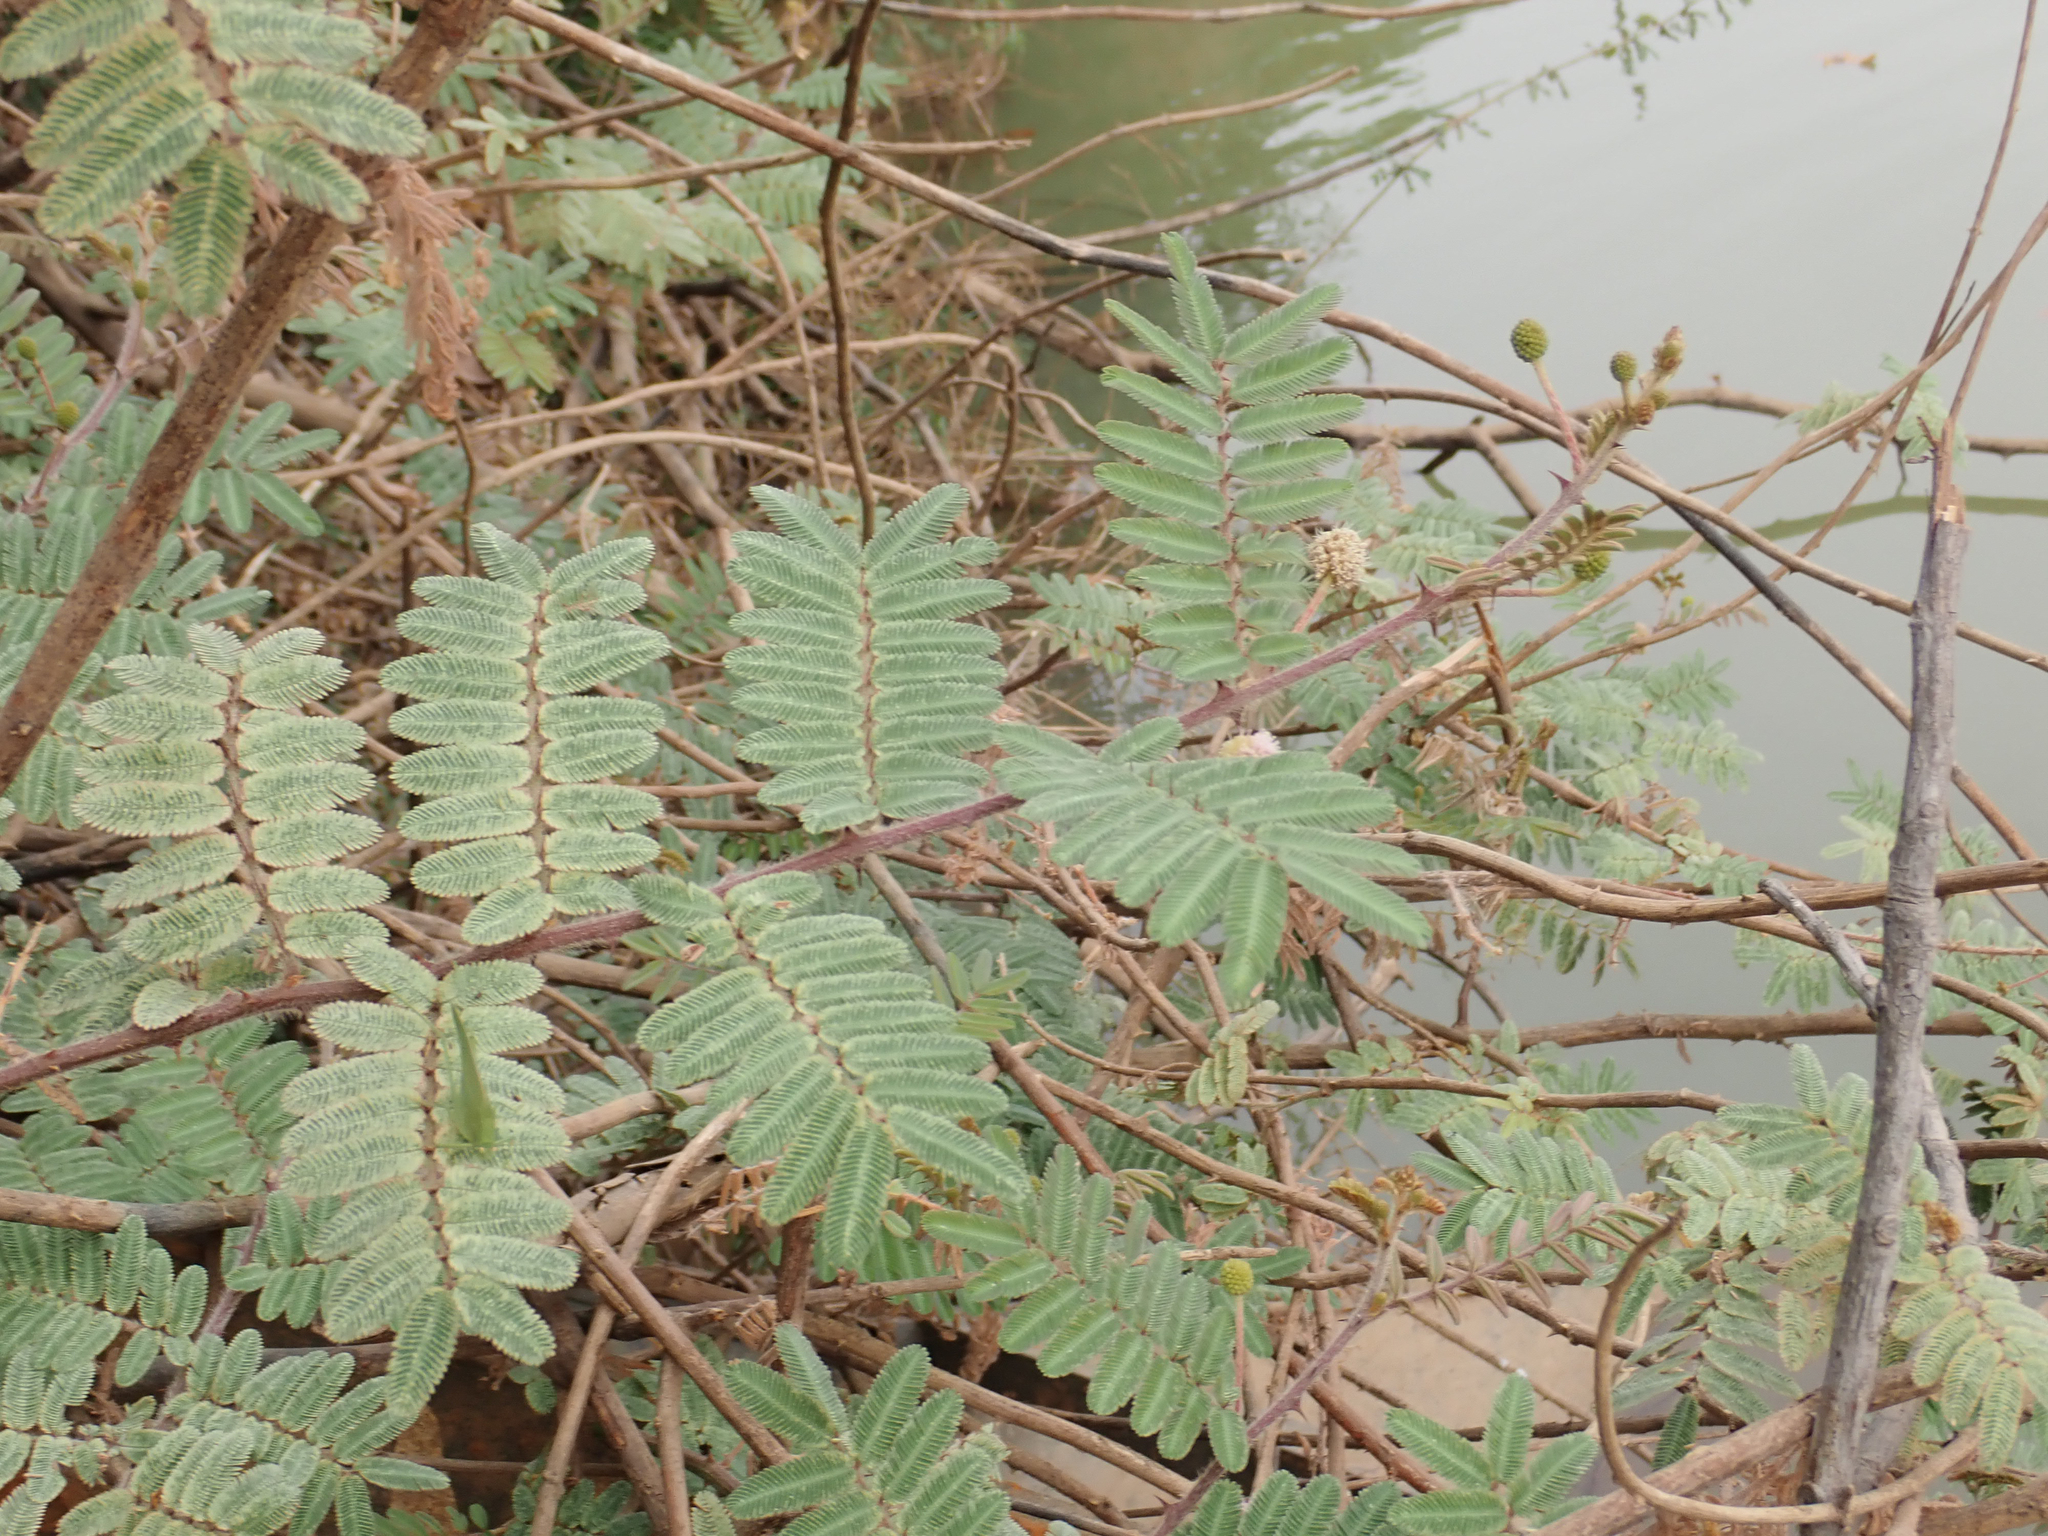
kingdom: Plantae
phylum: Tracheophyta
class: Magnoliopsida
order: Fabales
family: Fabaceae
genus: Mimosa
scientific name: Mimosa pigra
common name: Black mimosa
